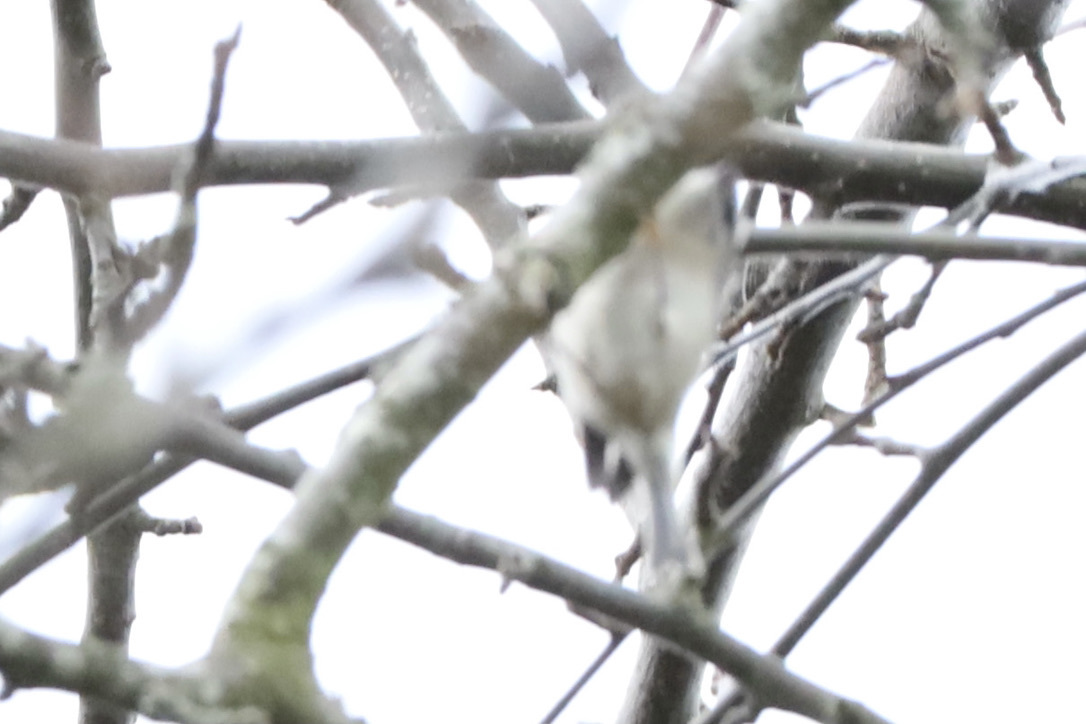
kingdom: Animalia
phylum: Chordata
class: Aves
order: Passeriformes
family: Regulidae
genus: Regulus
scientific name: Regulus satrapa
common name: Golden-crowned kinglet
